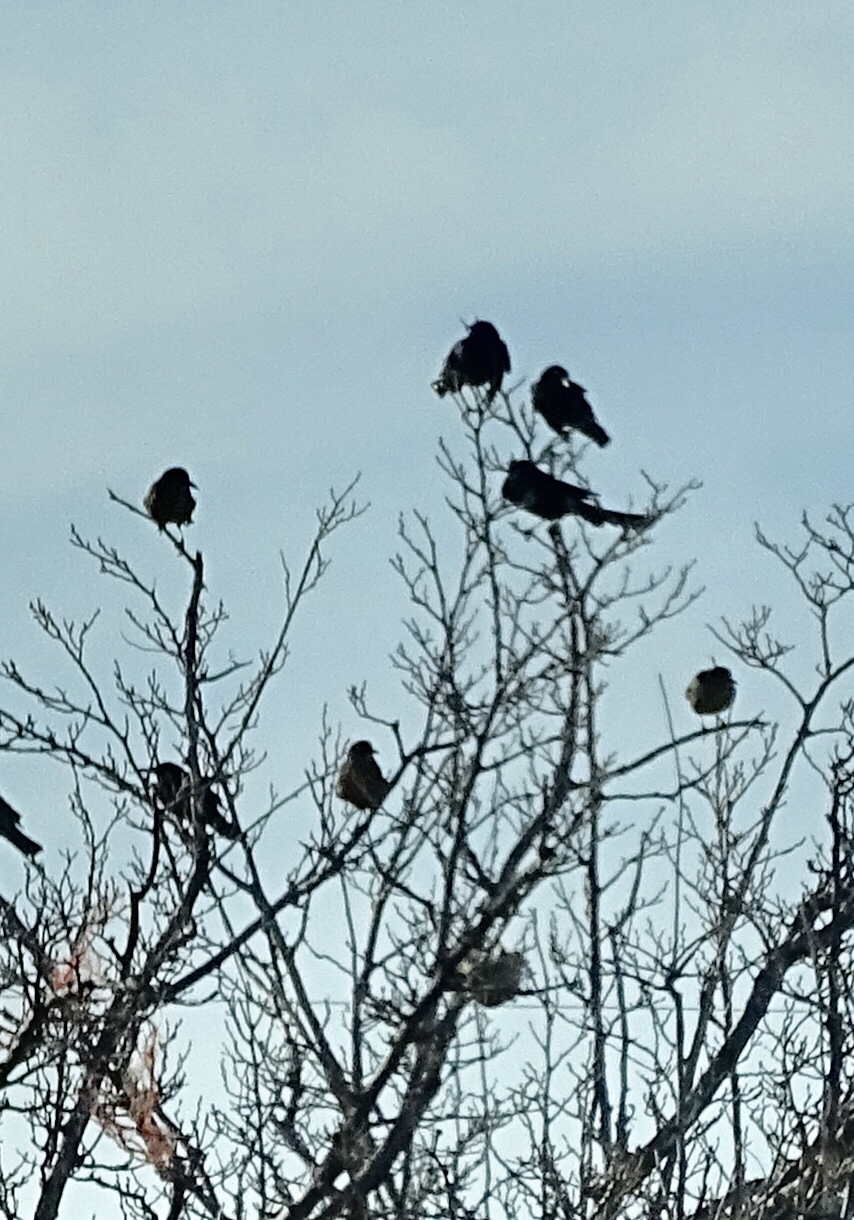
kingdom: Animalia
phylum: Chordata
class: Aves
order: Passeriformes
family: Icteridae
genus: Quiscalus
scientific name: Quiscalus mexicanus
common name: Great-tailed grackle
